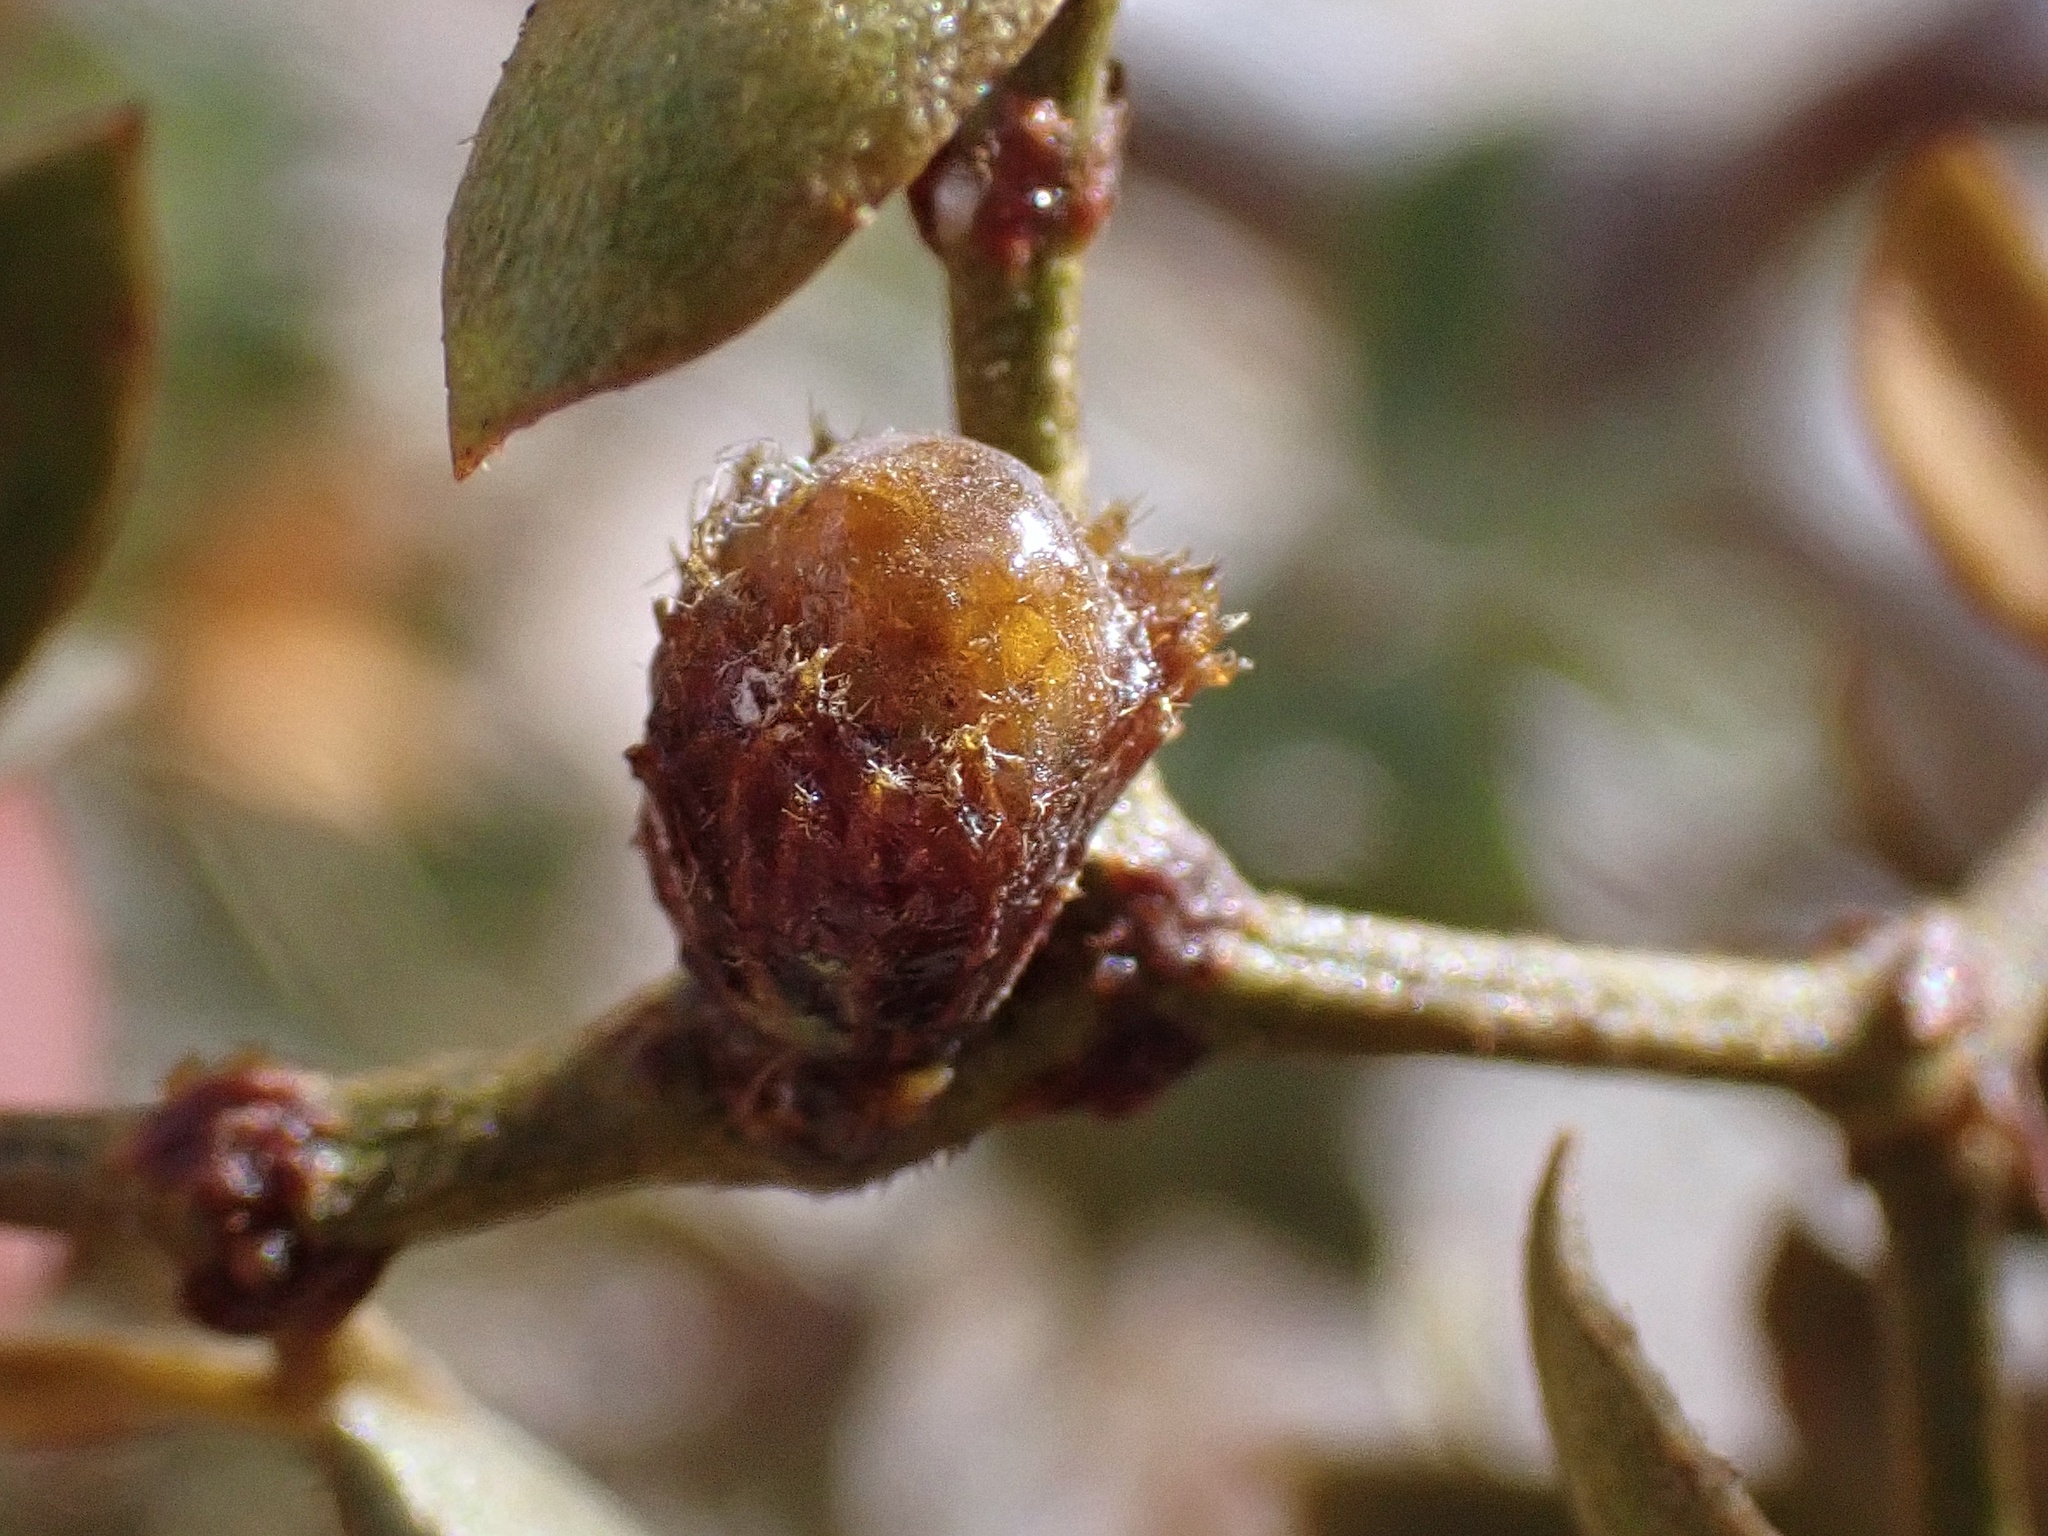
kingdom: Animalia
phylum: Arthropoda
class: Insecta
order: Diptera
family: Cecidomyiidae
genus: Asphondylia
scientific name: Asphondylia resinosa
